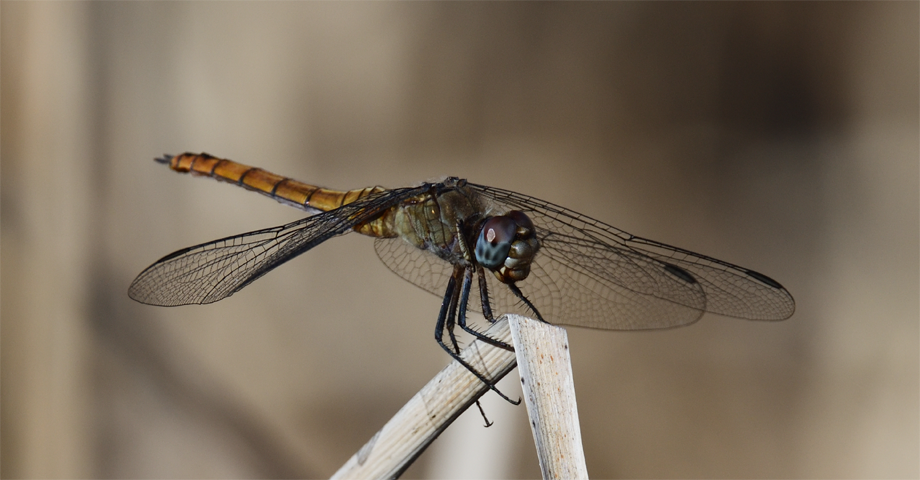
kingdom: Animalia
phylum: Arthropoda
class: Insecta
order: Odonata
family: Libellulidae
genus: Brachymesia
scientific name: Brachymesia furcata
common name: Red-taled pennant
